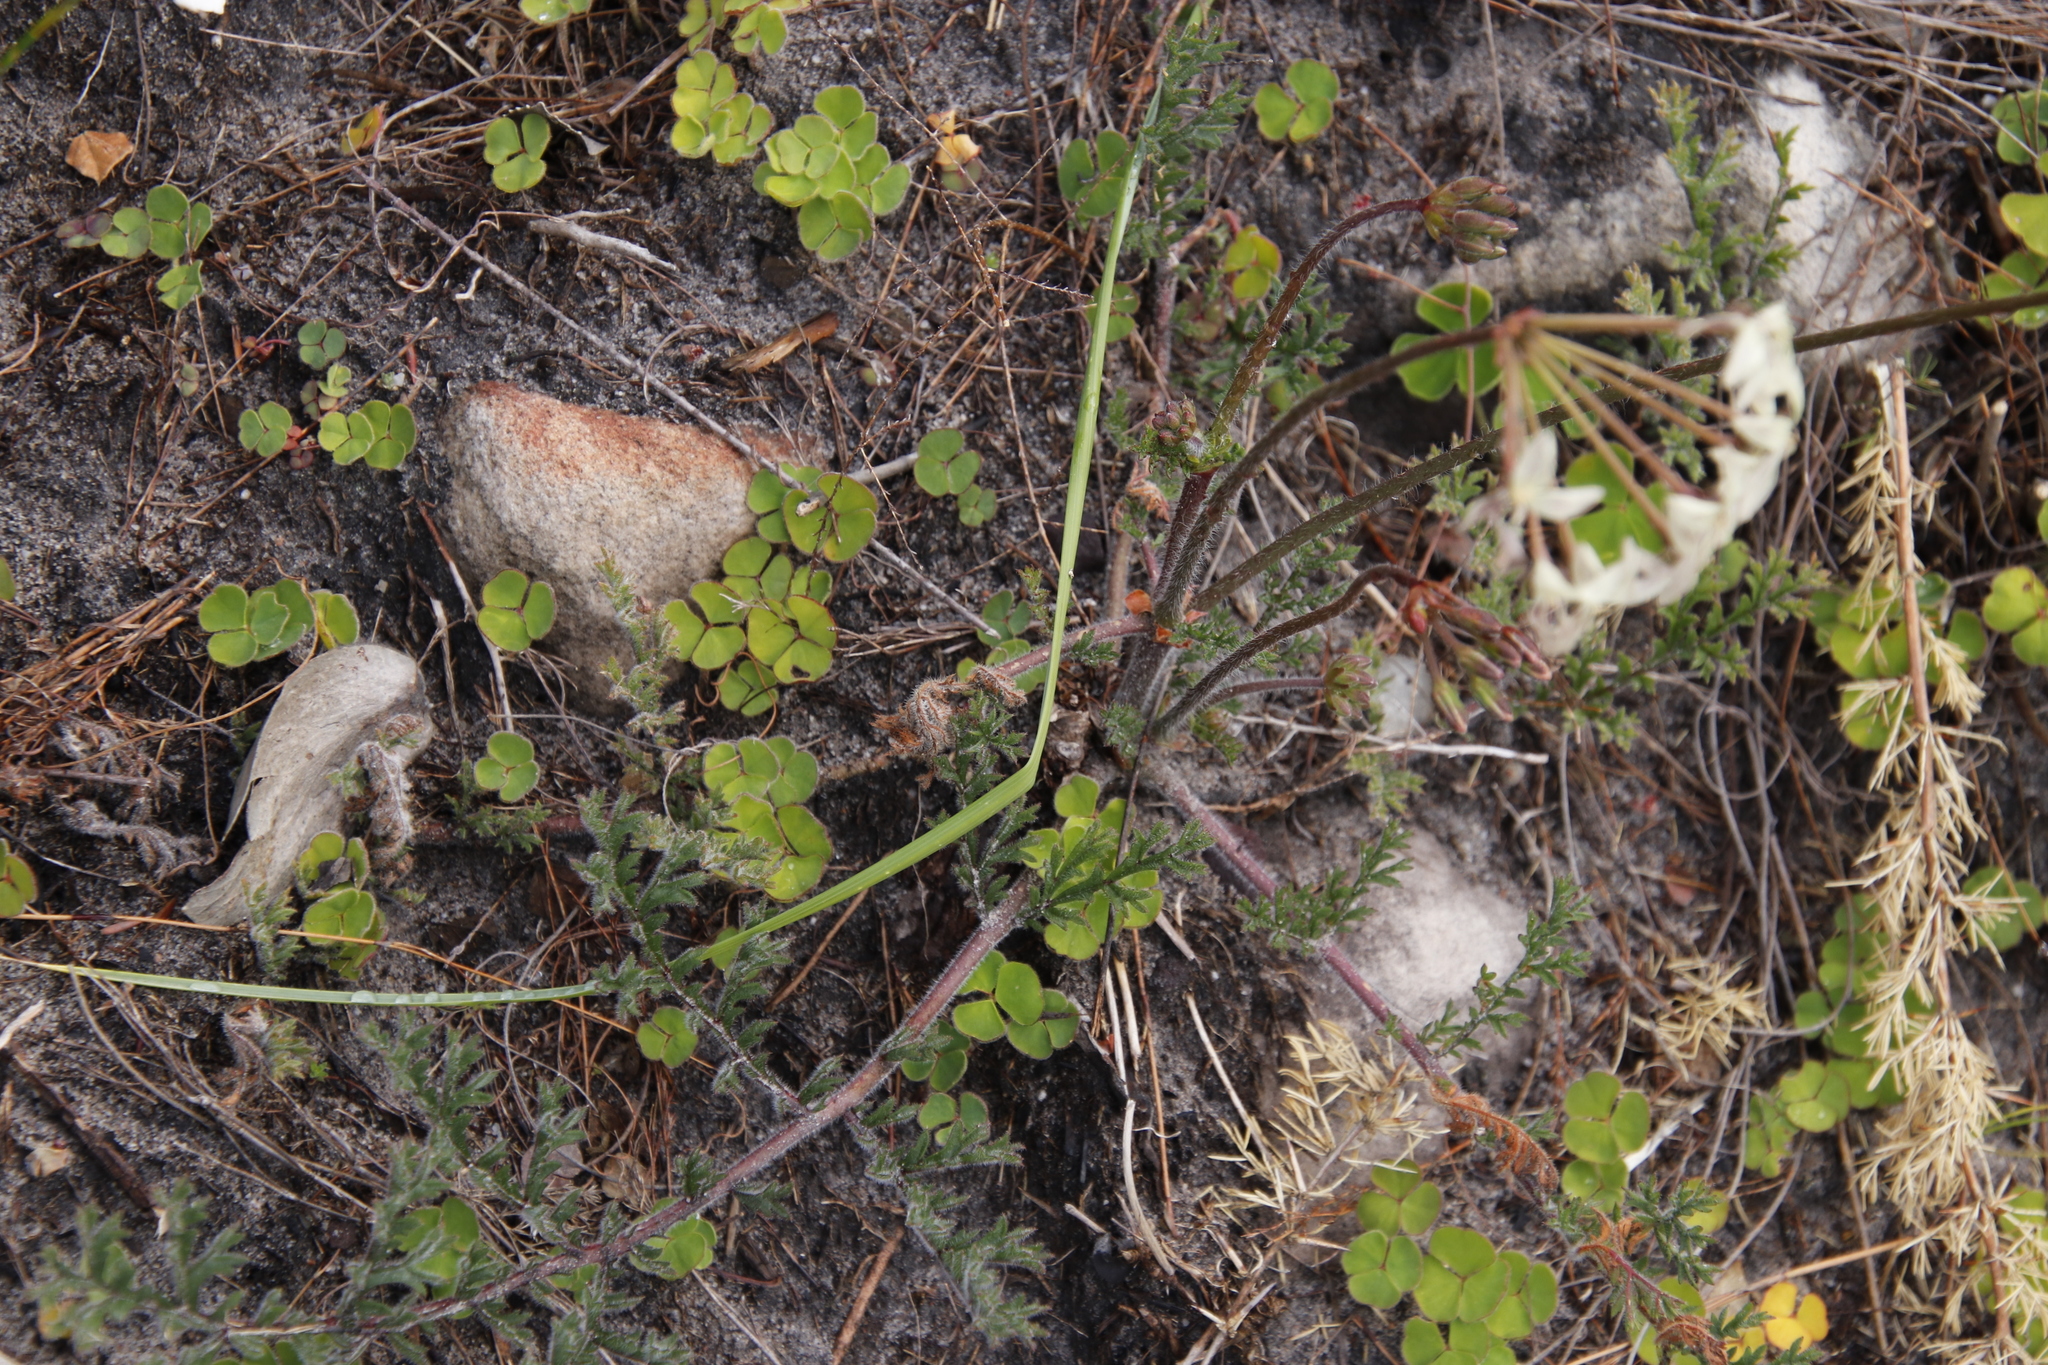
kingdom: Plantae
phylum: Tracheophyta
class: Magnoliopsida
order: Geraniales
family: Geraniaceae
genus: Pelargonium
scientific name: Pelargonium triste
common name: Night-scent pelargonium
